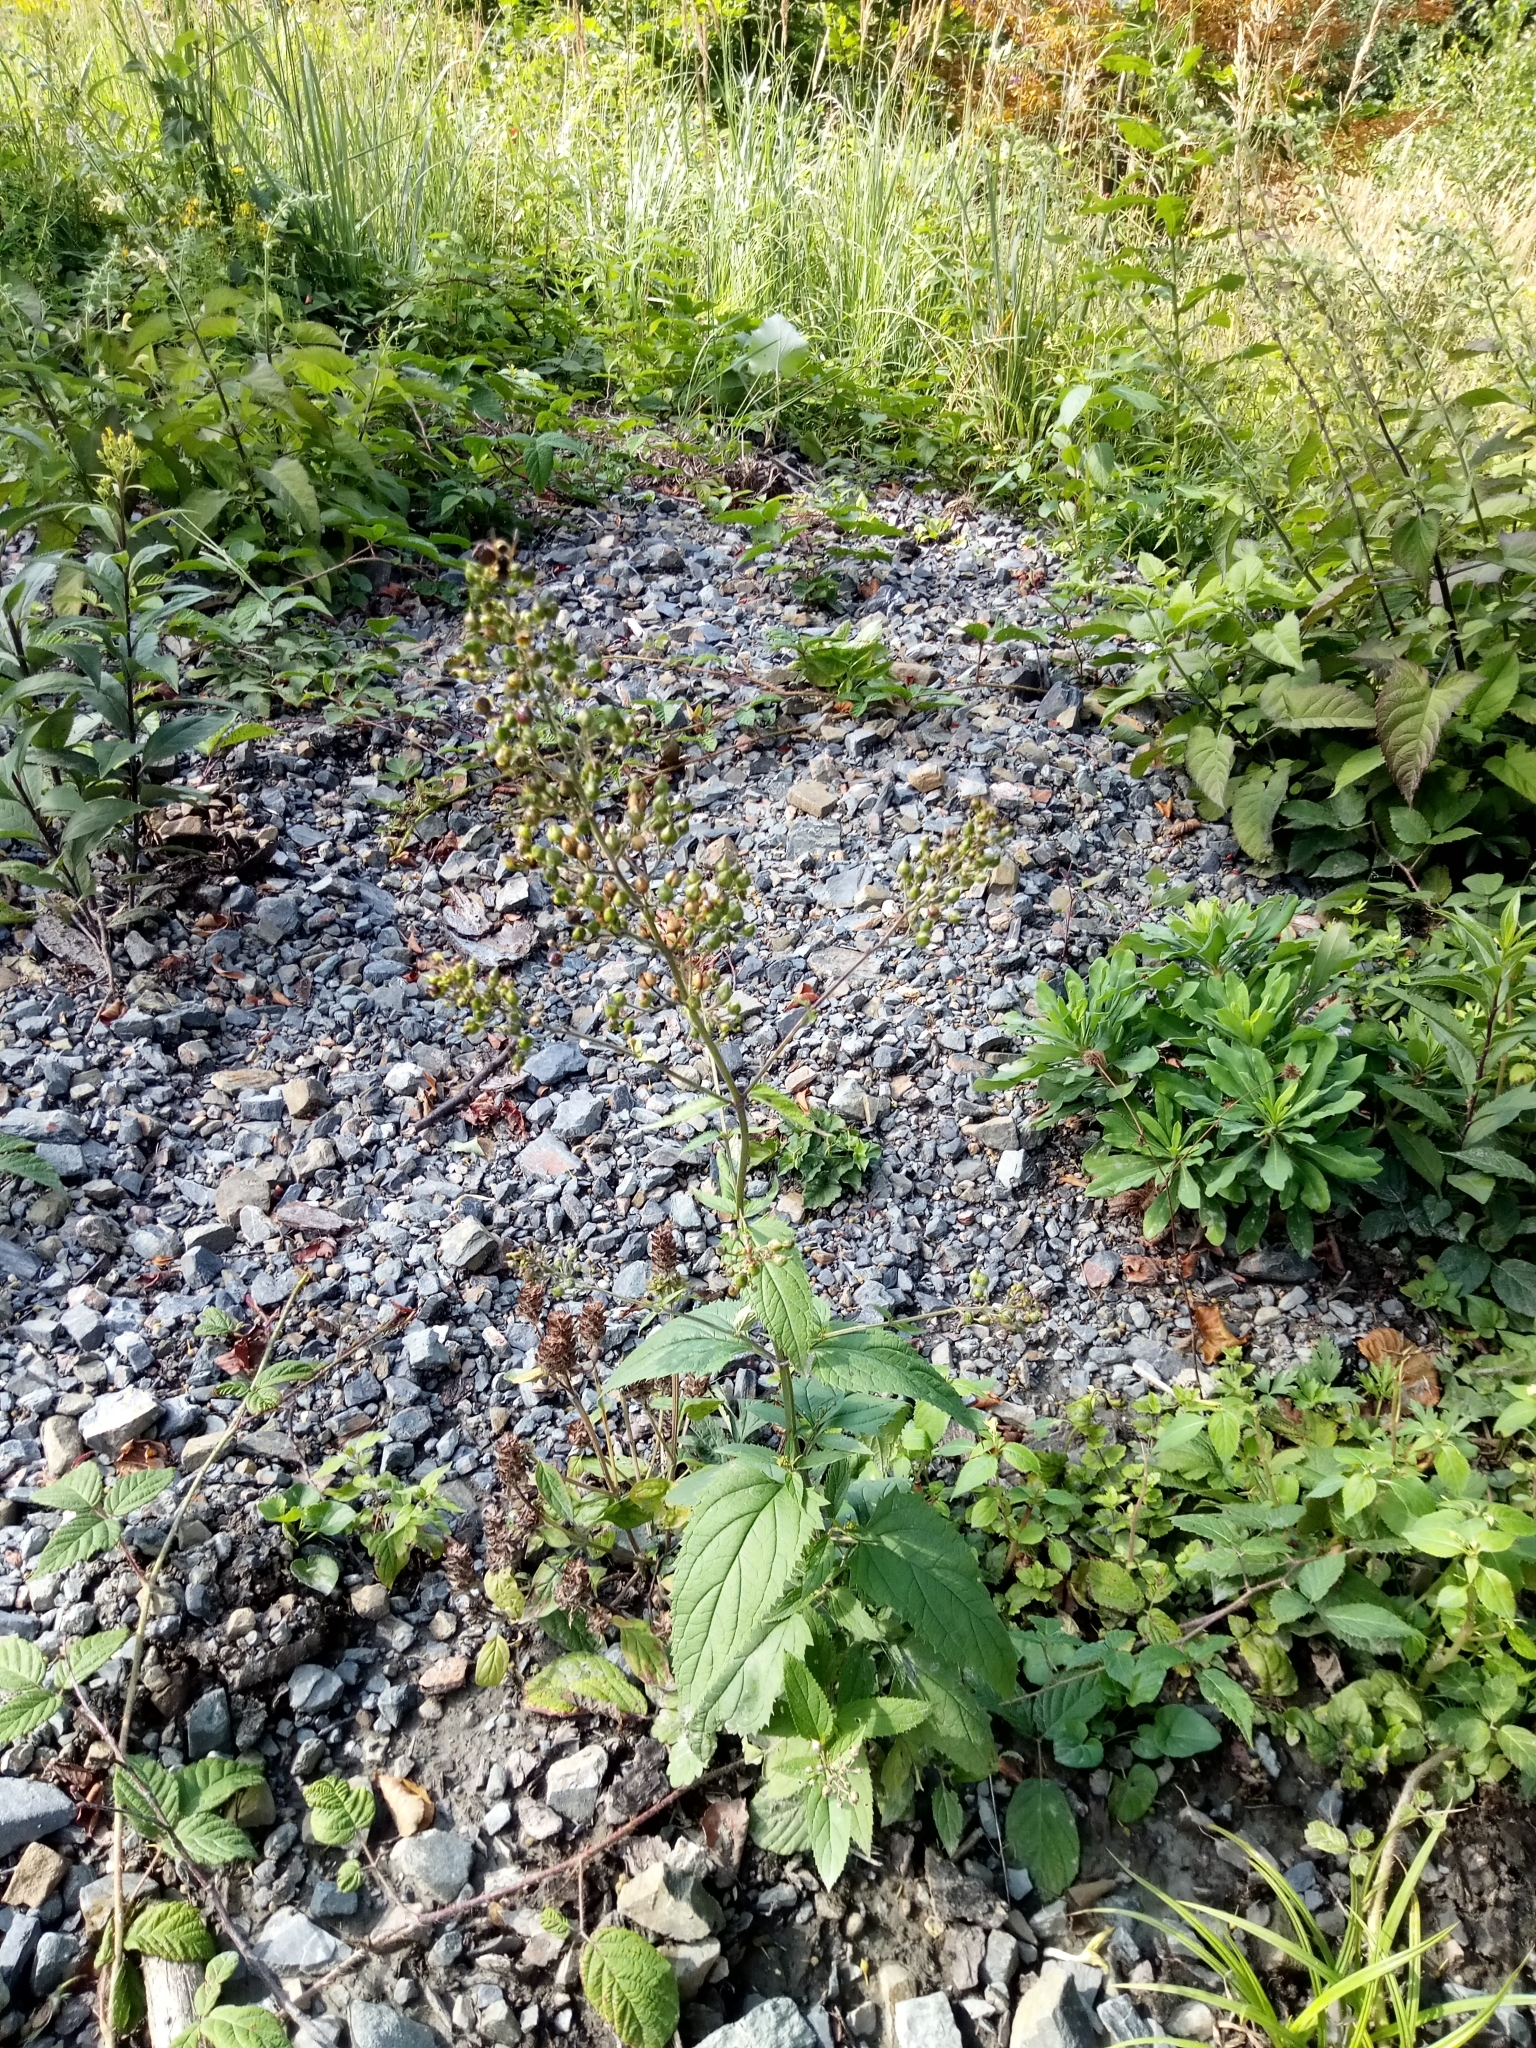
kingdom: Plantae
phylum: Tracheophyta
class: Magnoliopsida
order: Lamiales
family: Scrophulariaceae
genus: Scrophularia
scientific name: Scrophularia nodosa
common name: Common figwort
